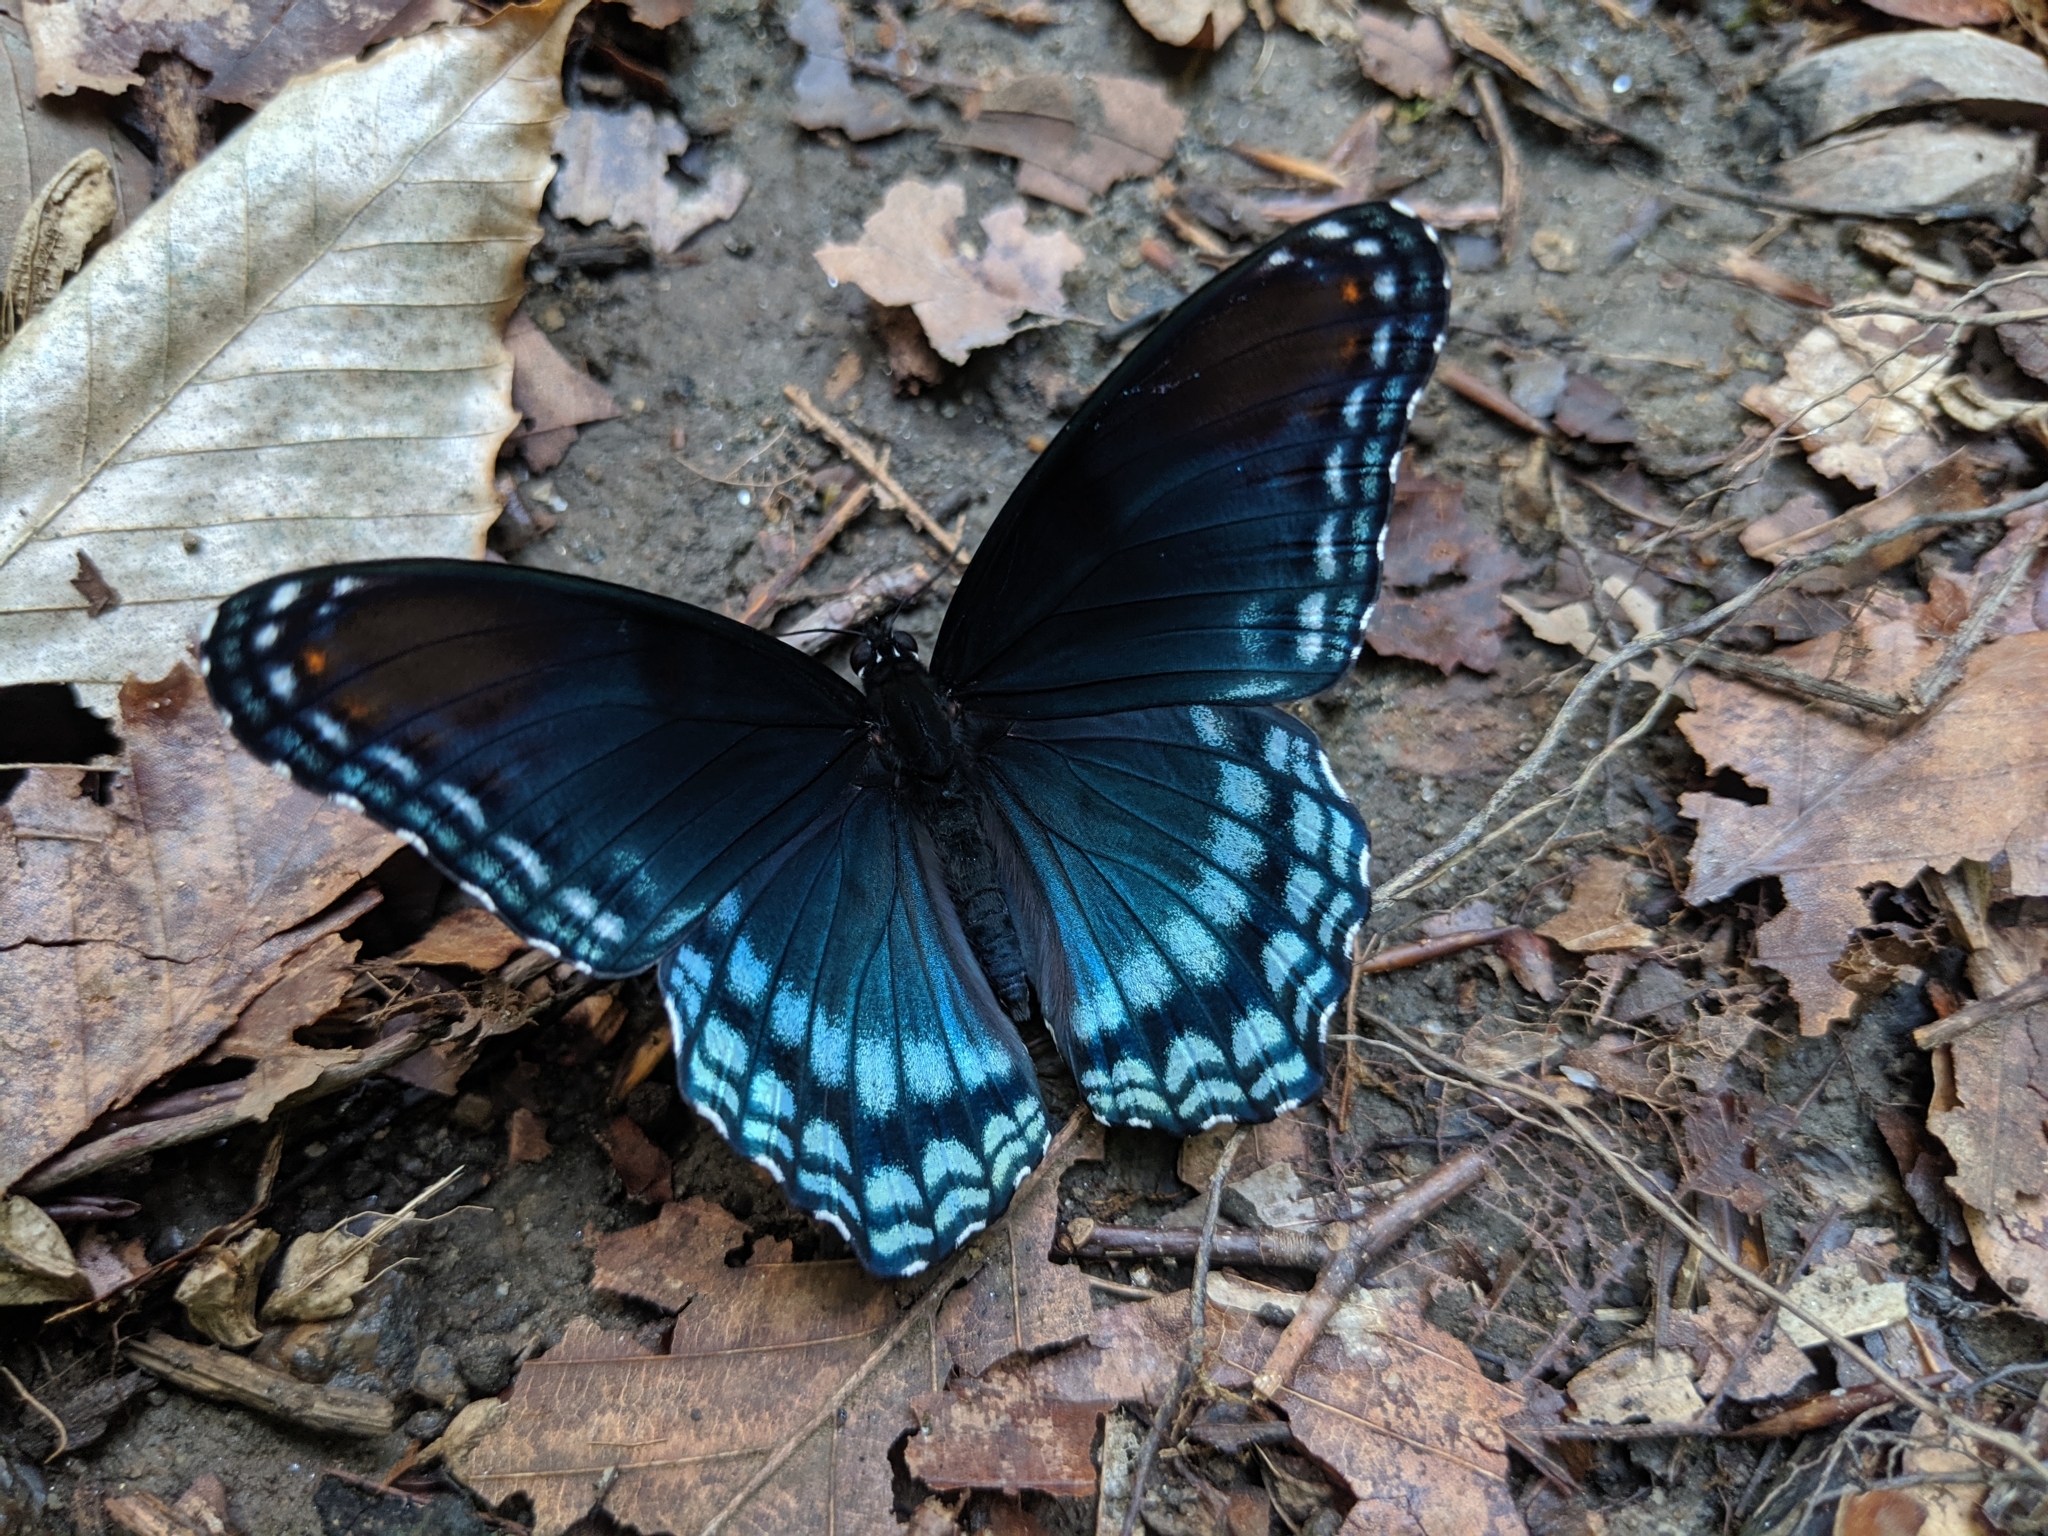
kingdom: Animalia
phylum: Arthropoda
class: Insecta
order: Lepidoptera
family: Nymphalidae
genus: Limenitis
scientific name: Limenitis astyanax
